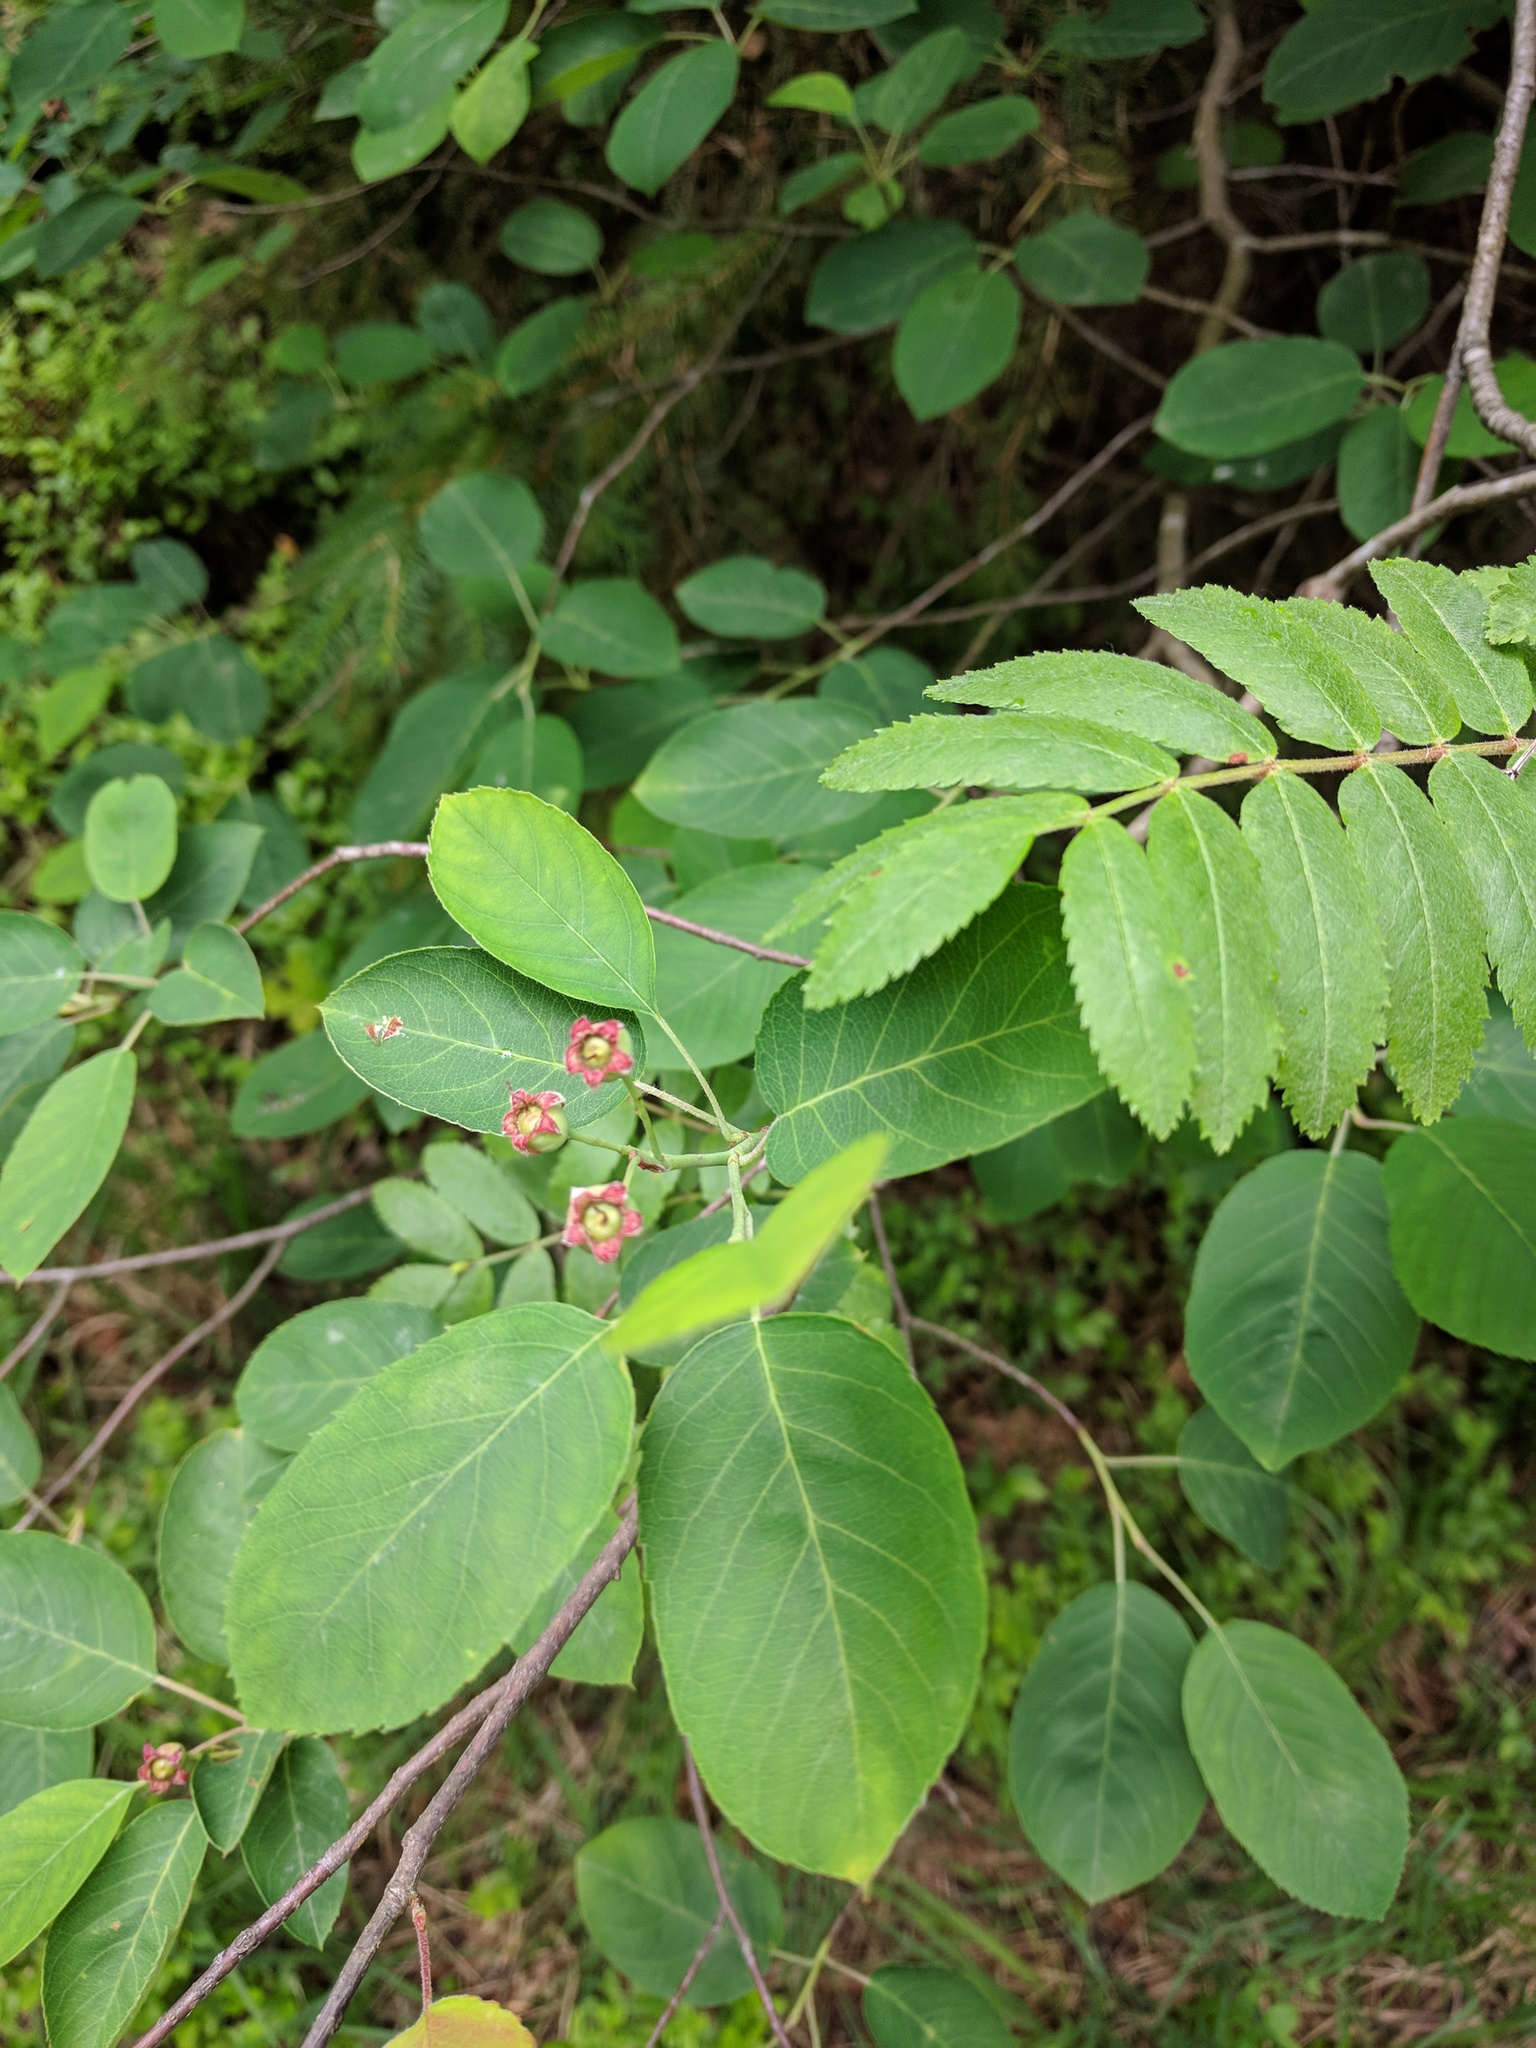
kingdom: Plantae
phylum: Tracheophyta
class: Magnoliopsida
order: Rosales
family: Rosaceae
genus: Amelanchier
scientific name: Amelanchier lamarckii
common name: Juneberry
